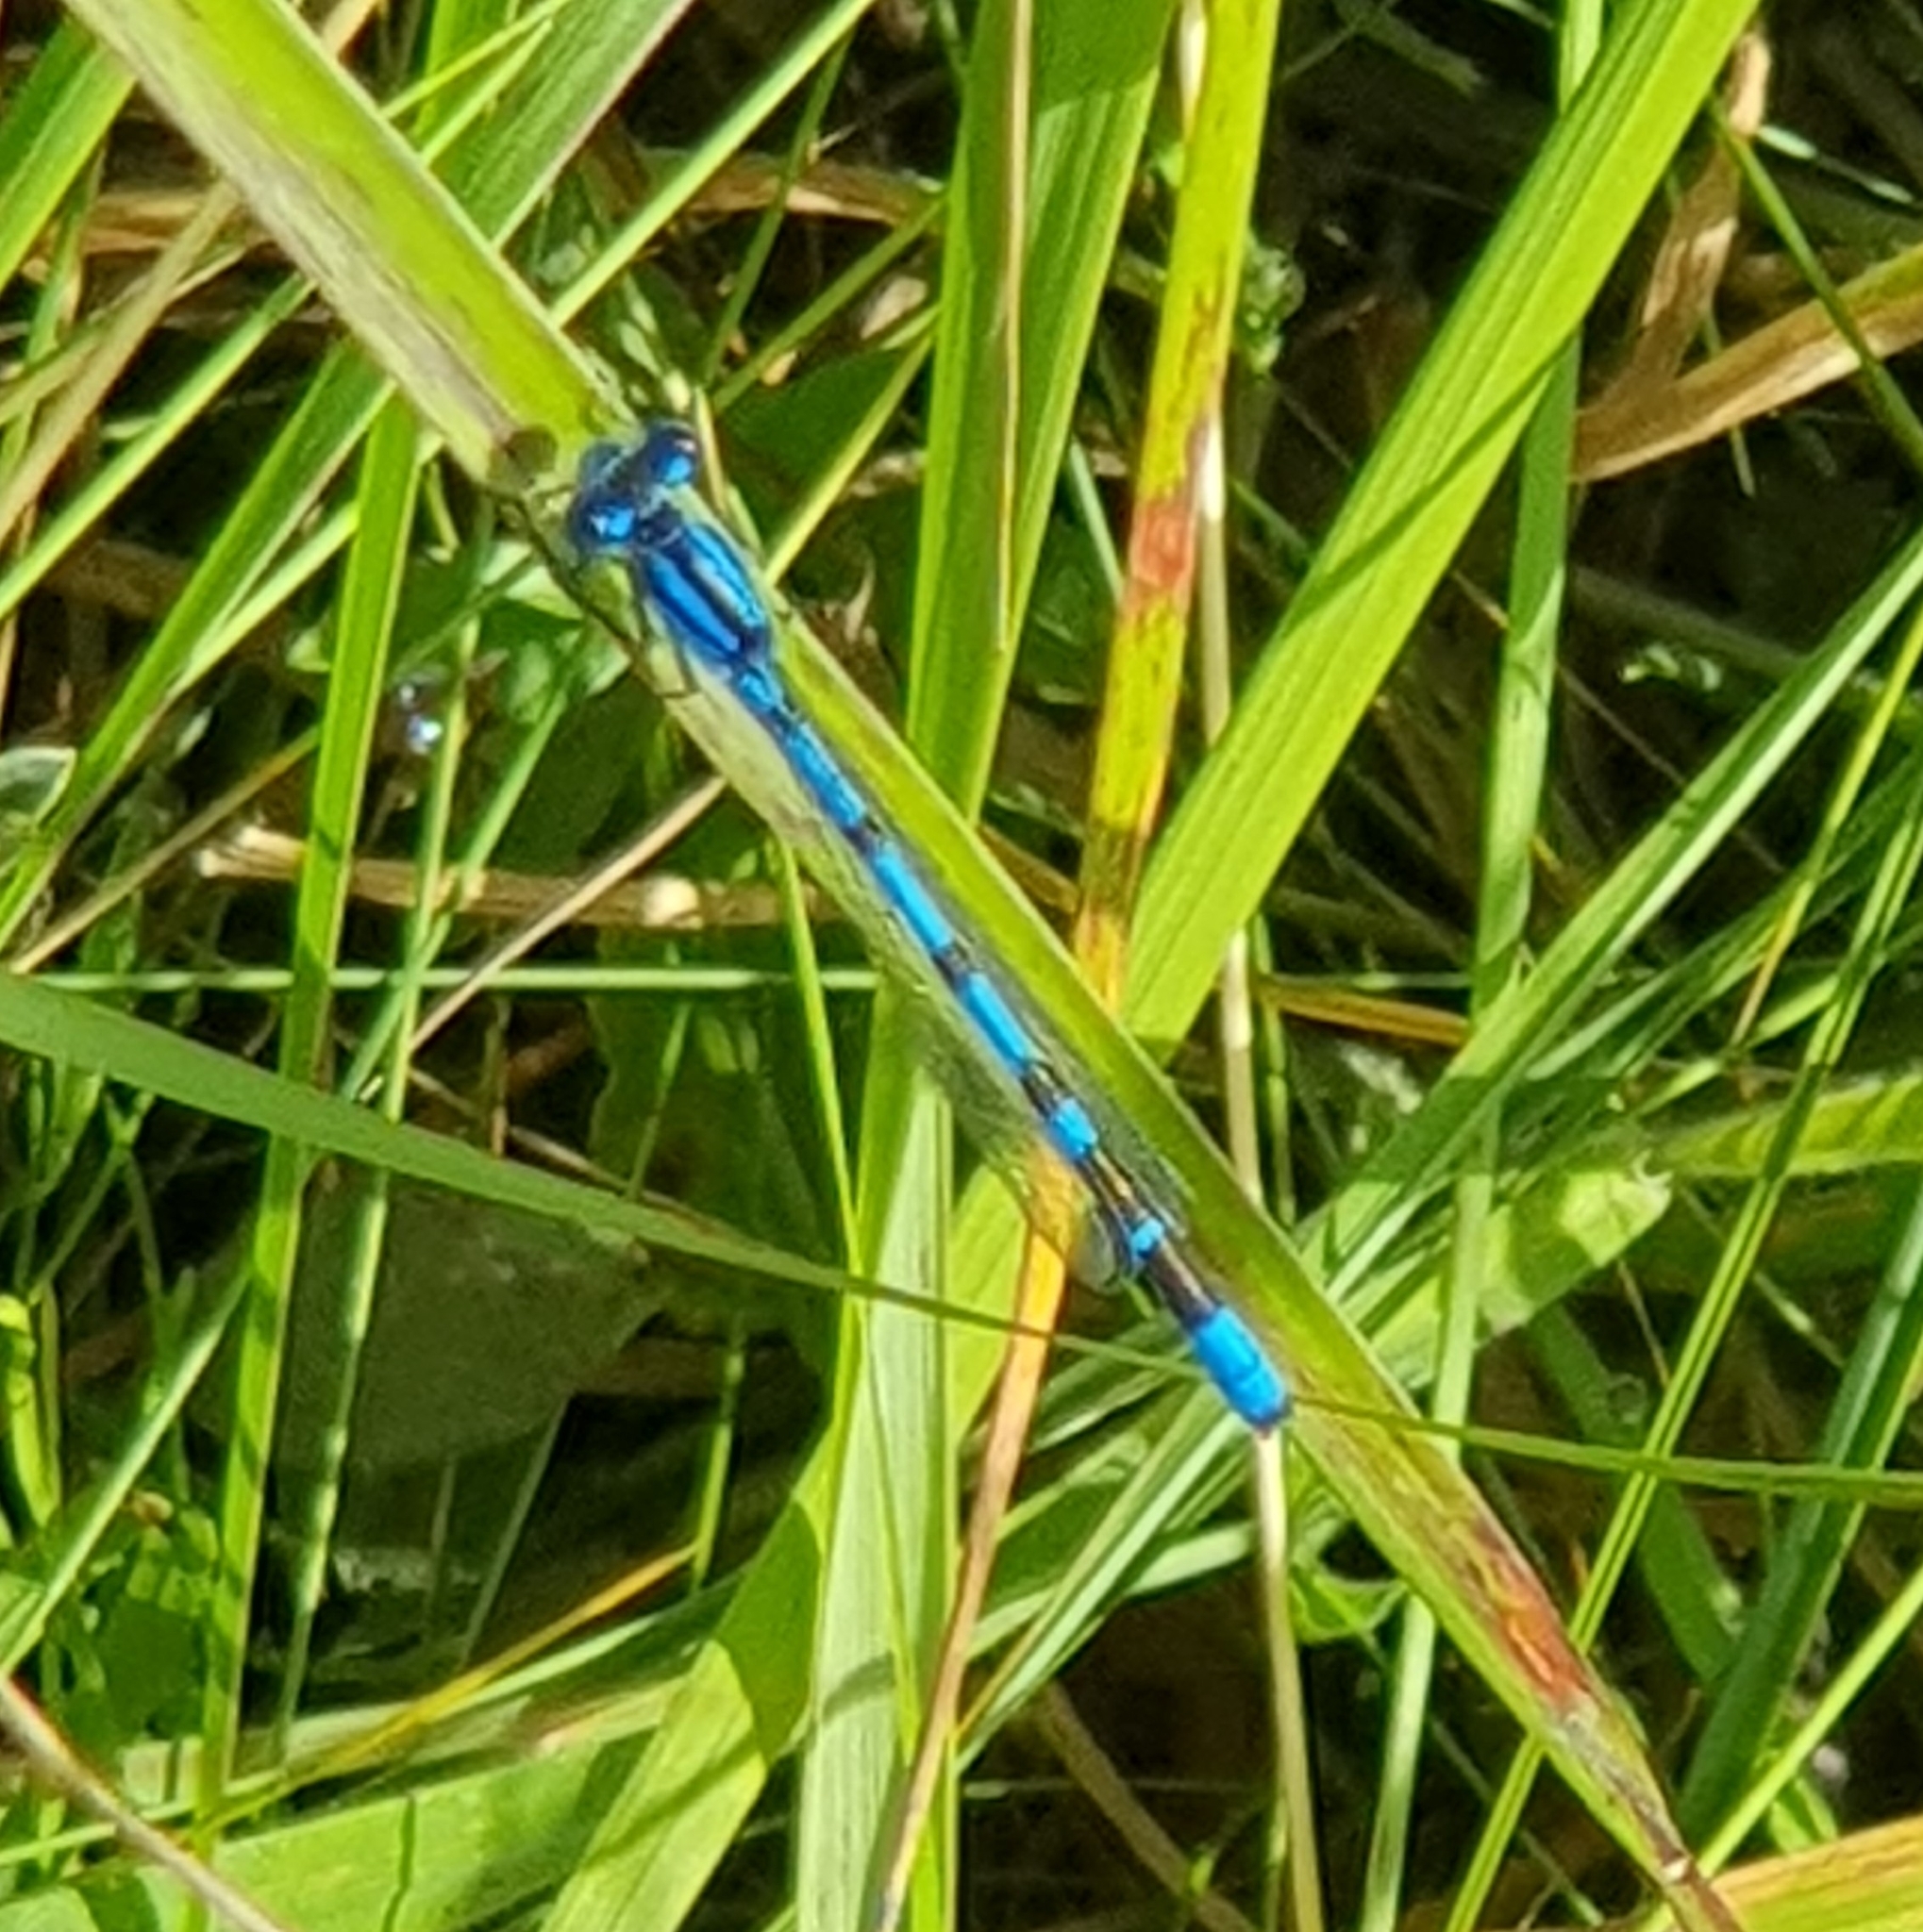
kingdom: Animalia
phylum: Arthropoda
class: Insecta
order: Odonata
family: Coenagrionidae
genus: Enallagma
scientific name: Enallagma cyathigerum
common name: Common blue damselfly
